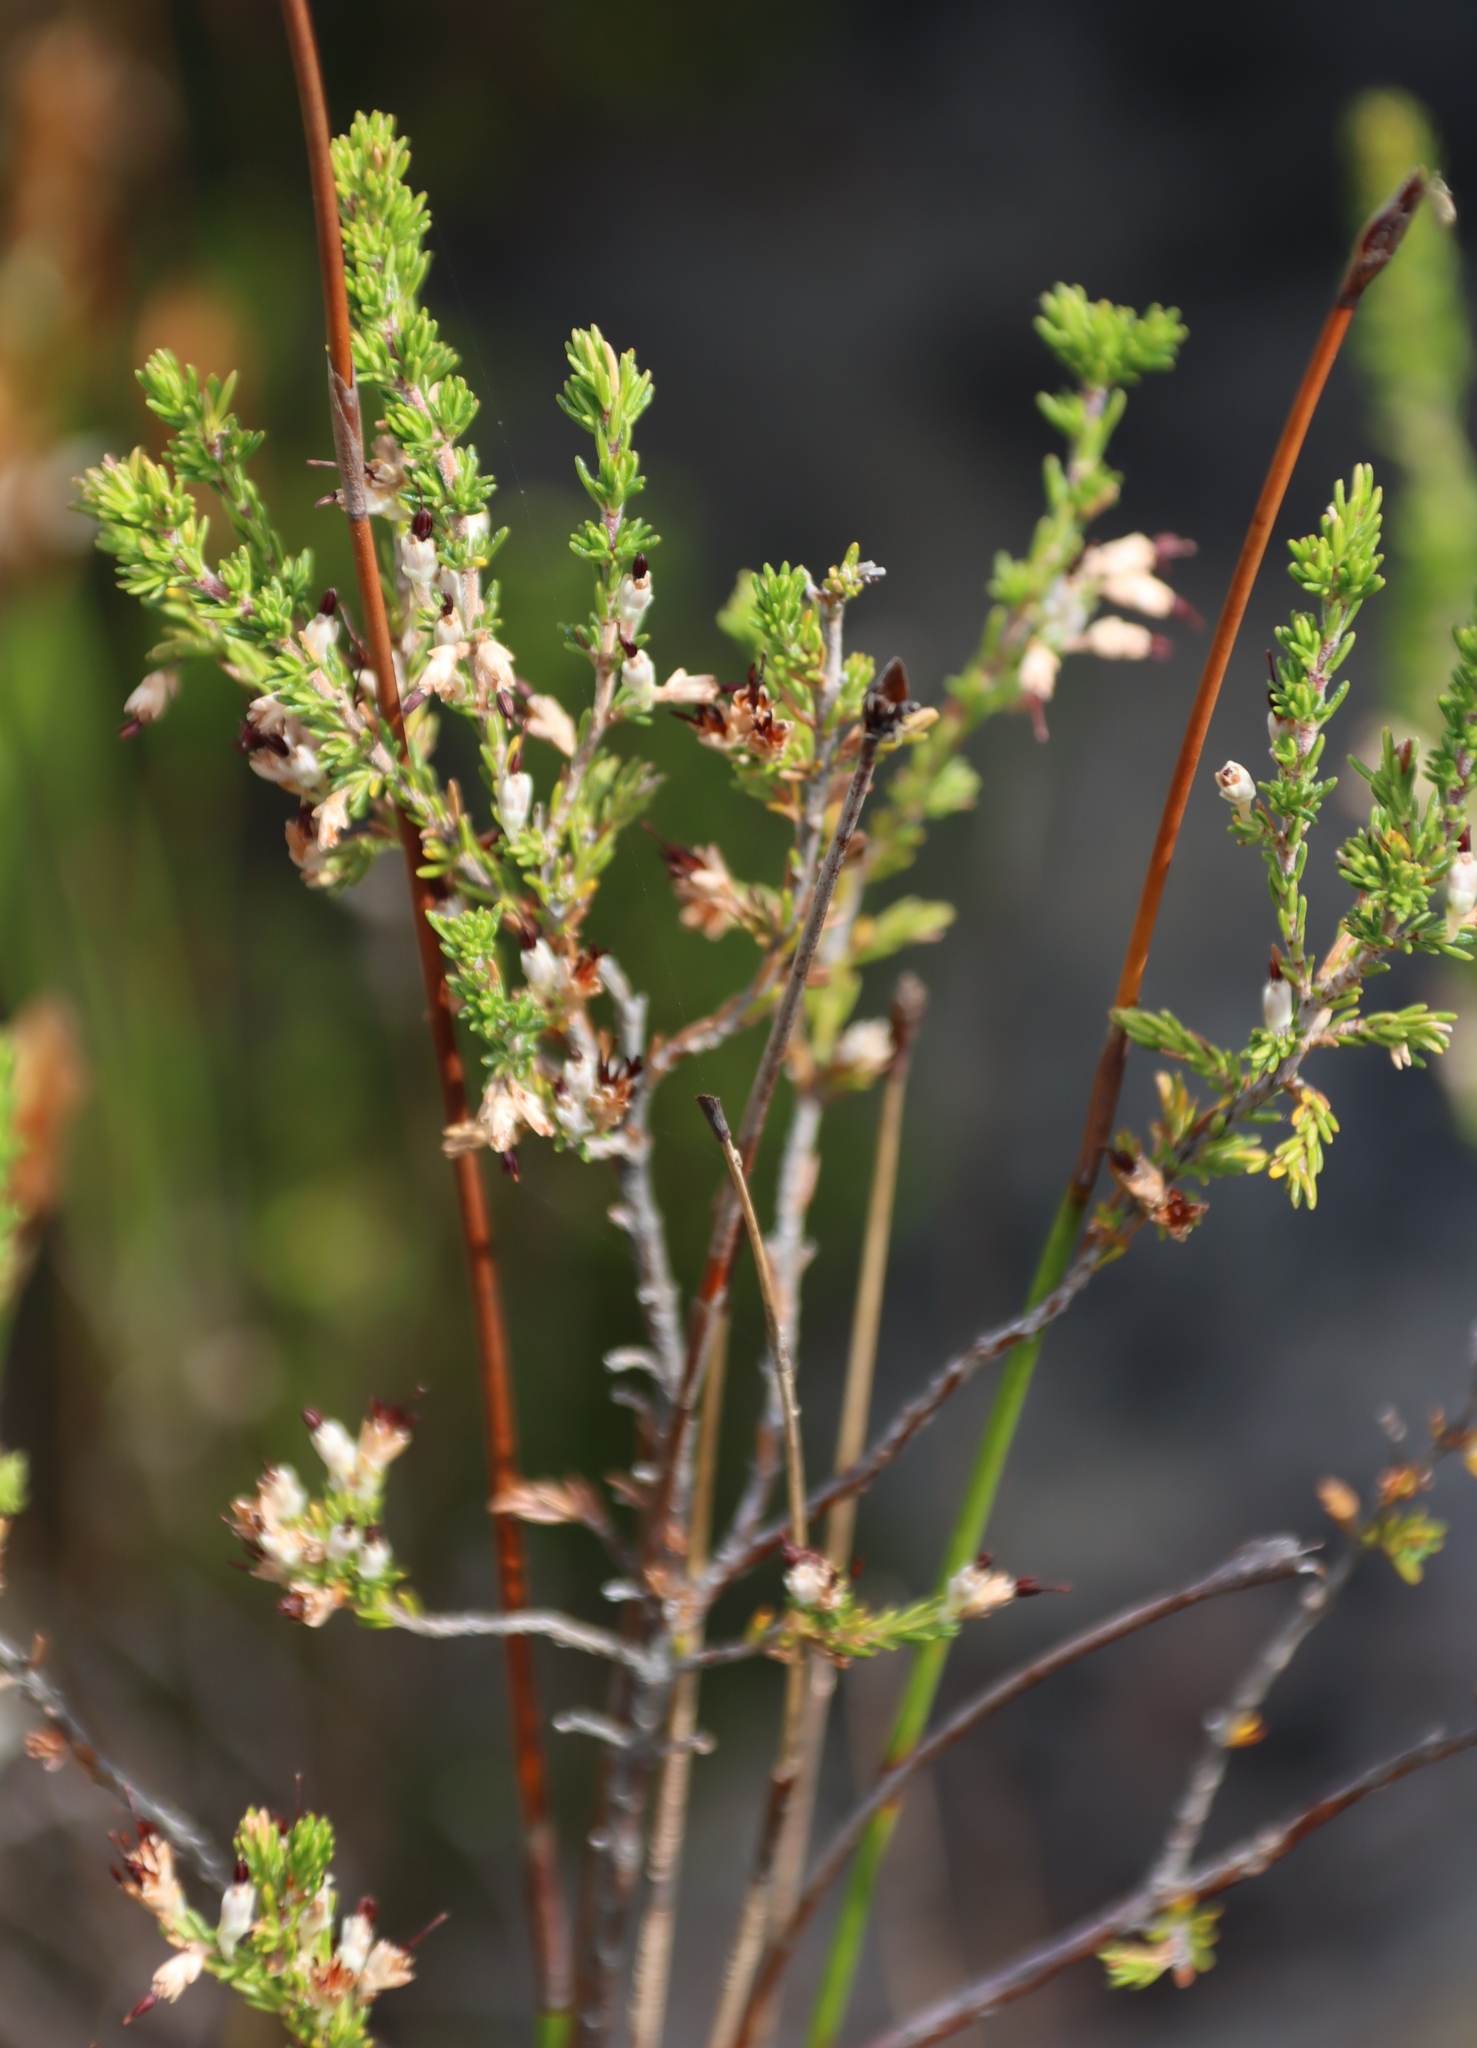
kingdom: Plantae
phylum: Tracheophyta
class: Magnoliopsida
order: Ericales
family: Ericaceae
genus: Erica
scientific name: Erica imbricata
